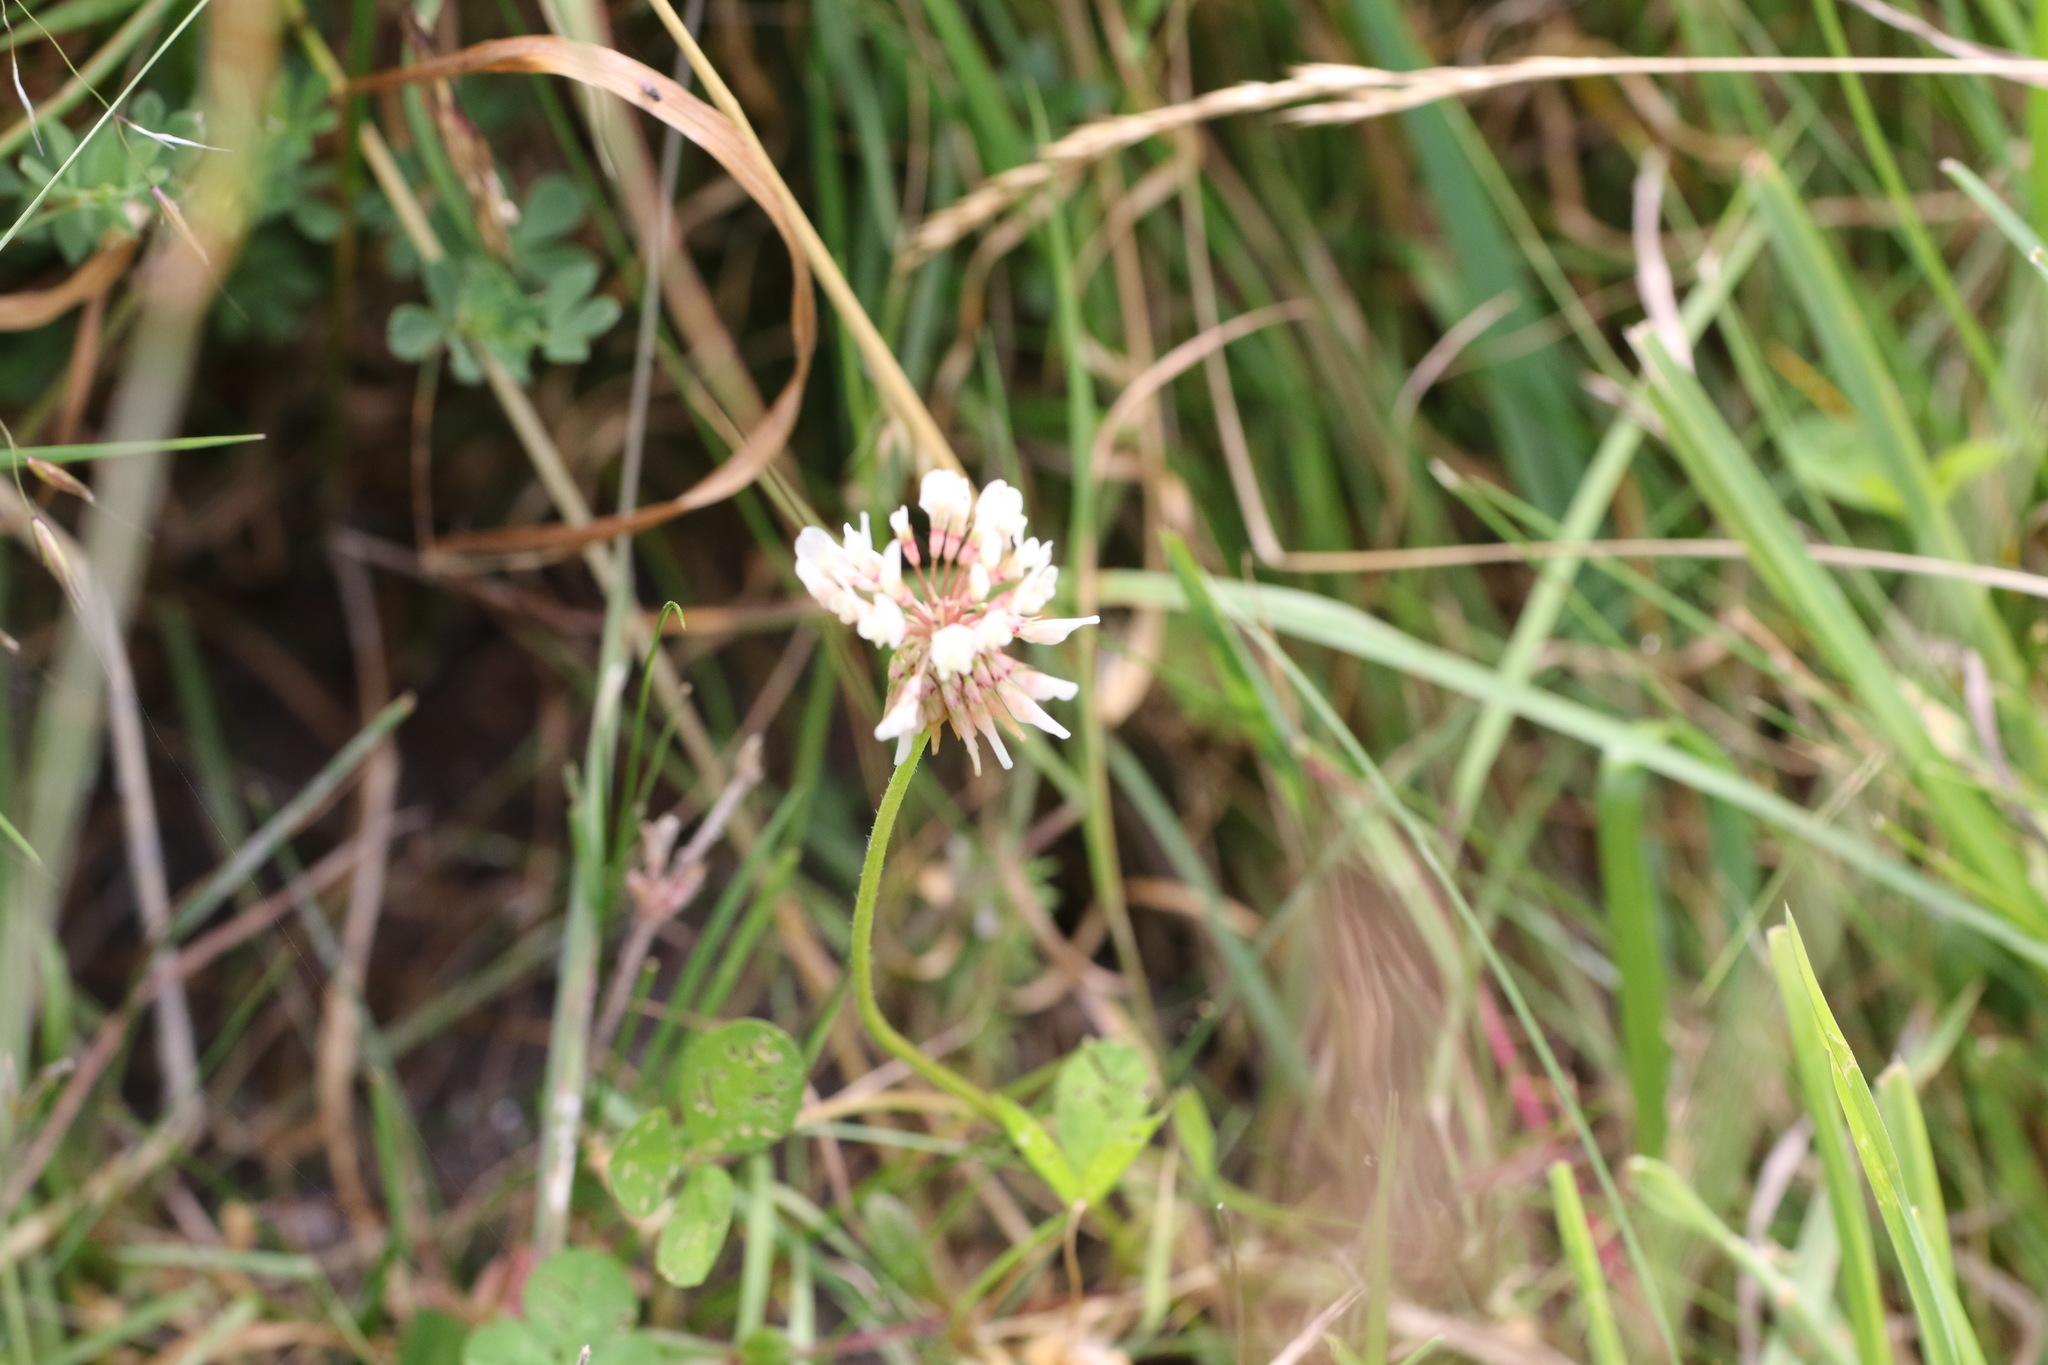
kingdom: Plantae
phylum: Tracheophyta
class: Magnoliopsida
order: Fabales
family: Fabaceae
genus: Trifolium
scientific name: Trifolium repens
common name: White clover
